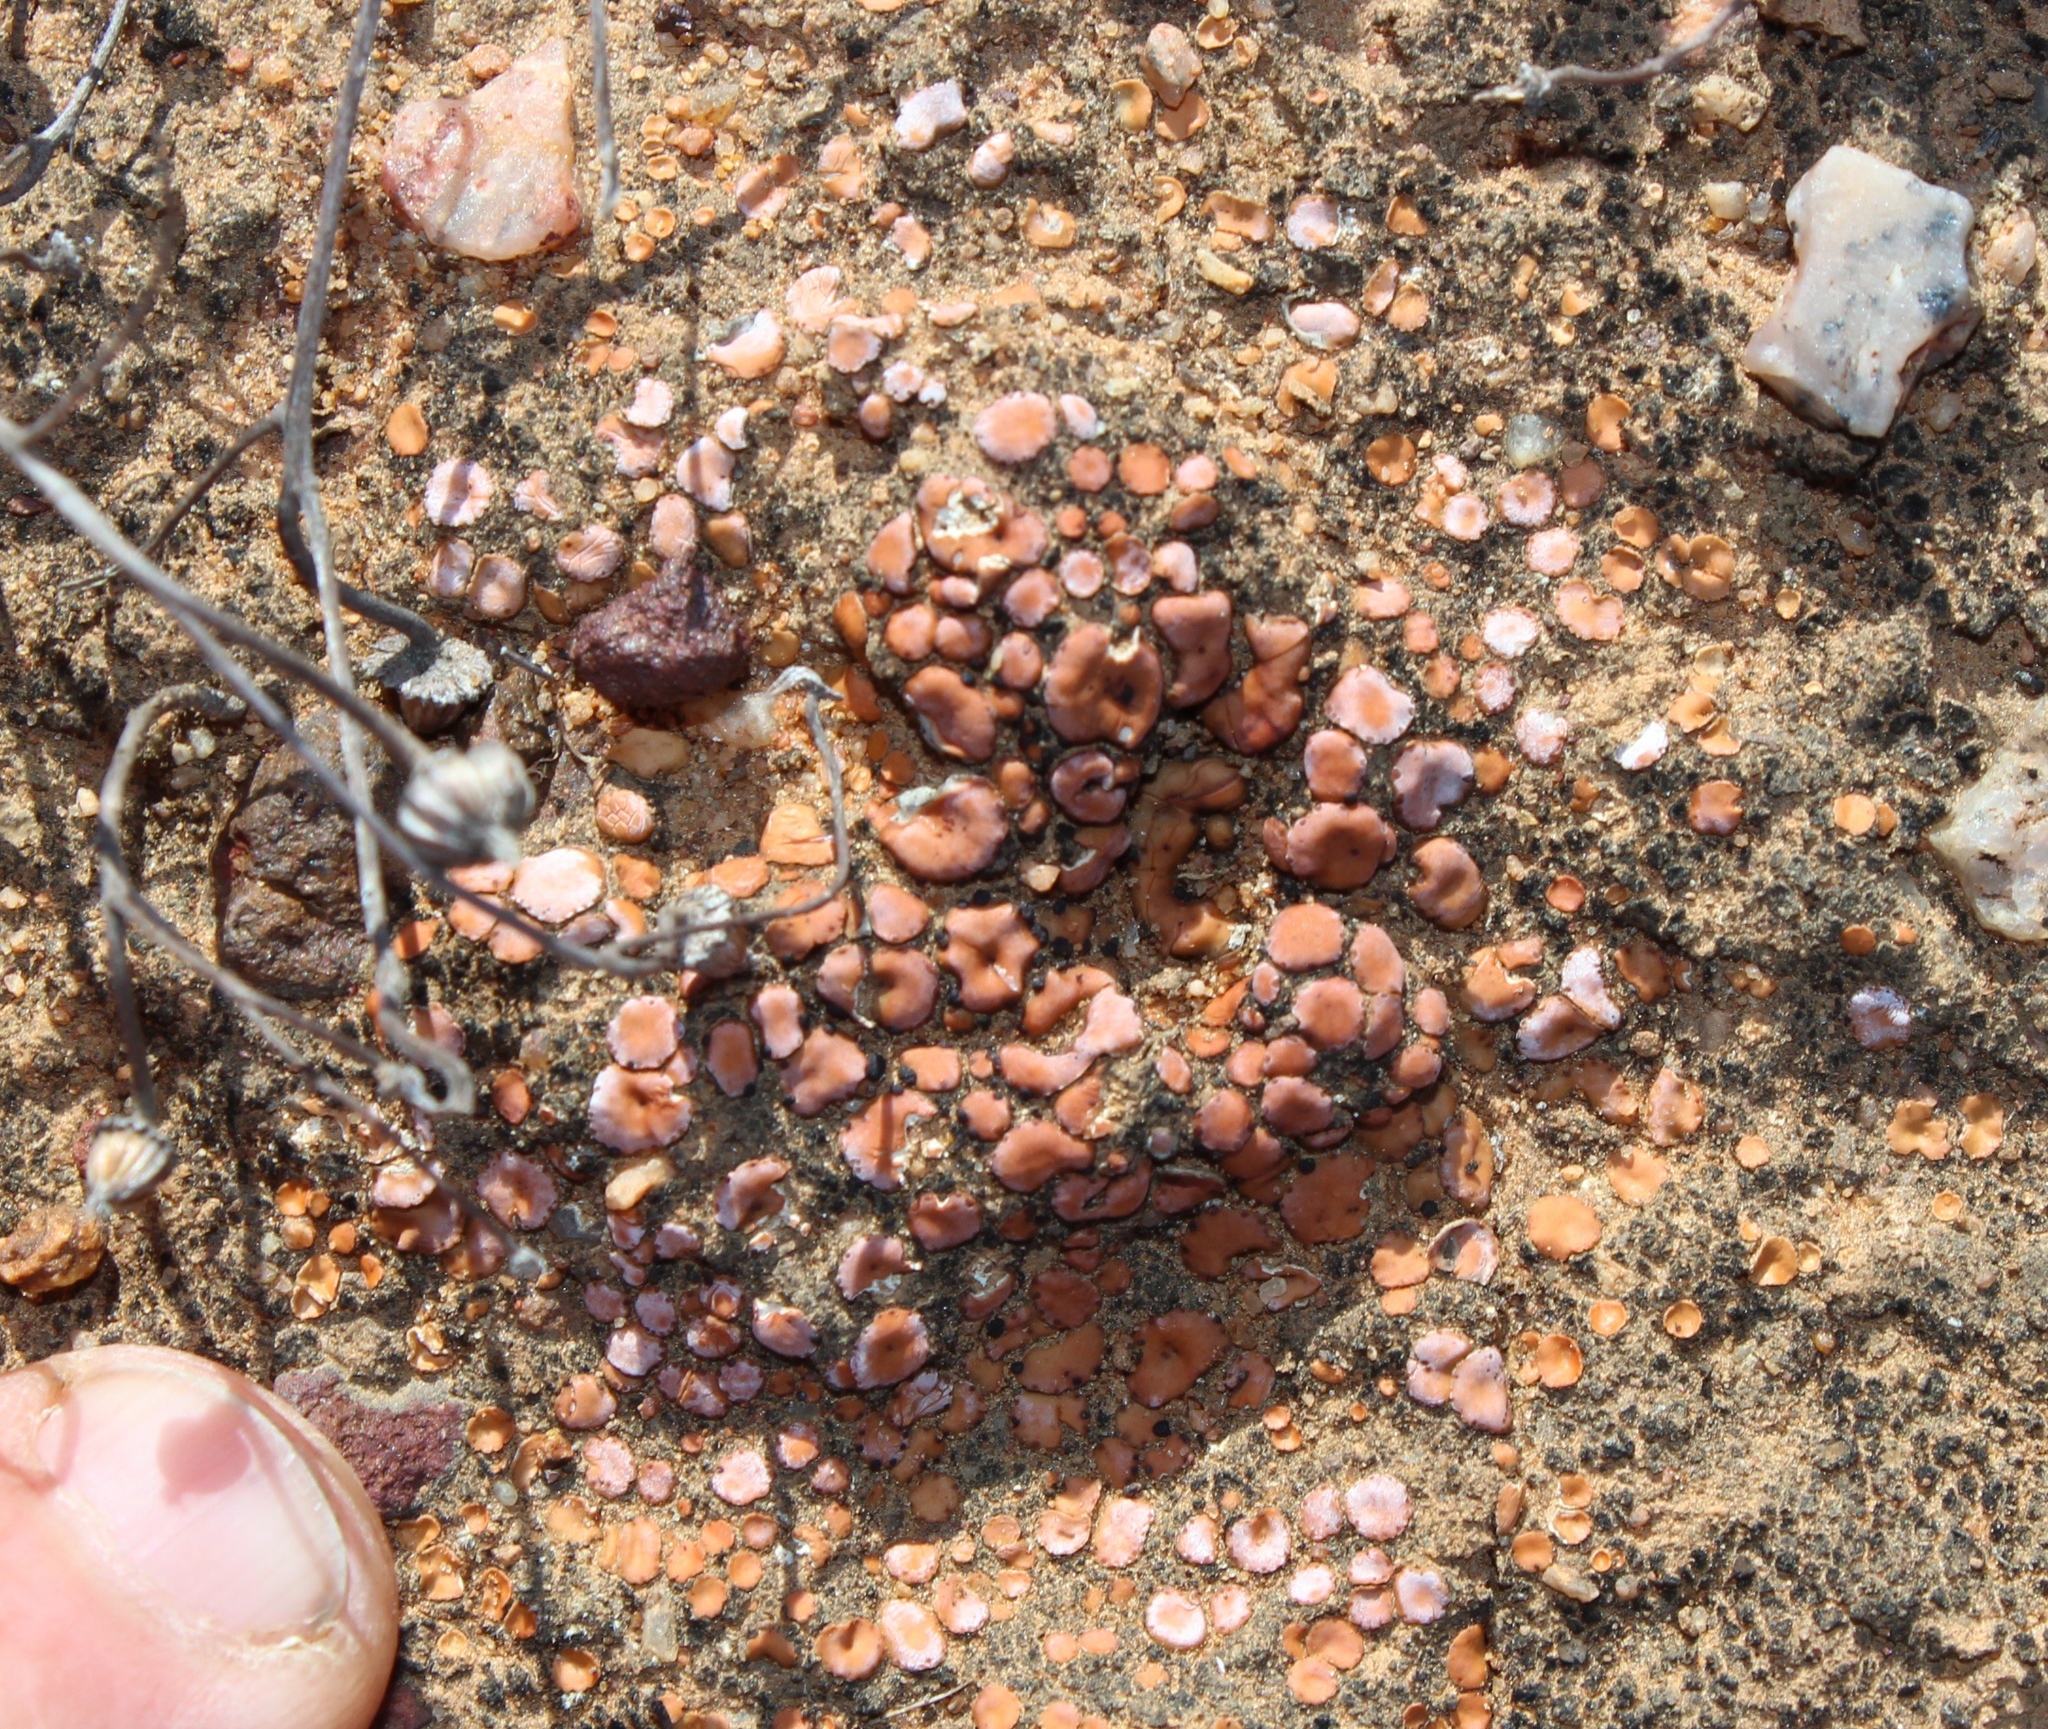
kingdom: Fungi
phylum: Ascomycota
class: Lecanoromycetes
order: Lecanorales
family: Psoraceae
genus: Psora
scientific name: Psora decipiens
